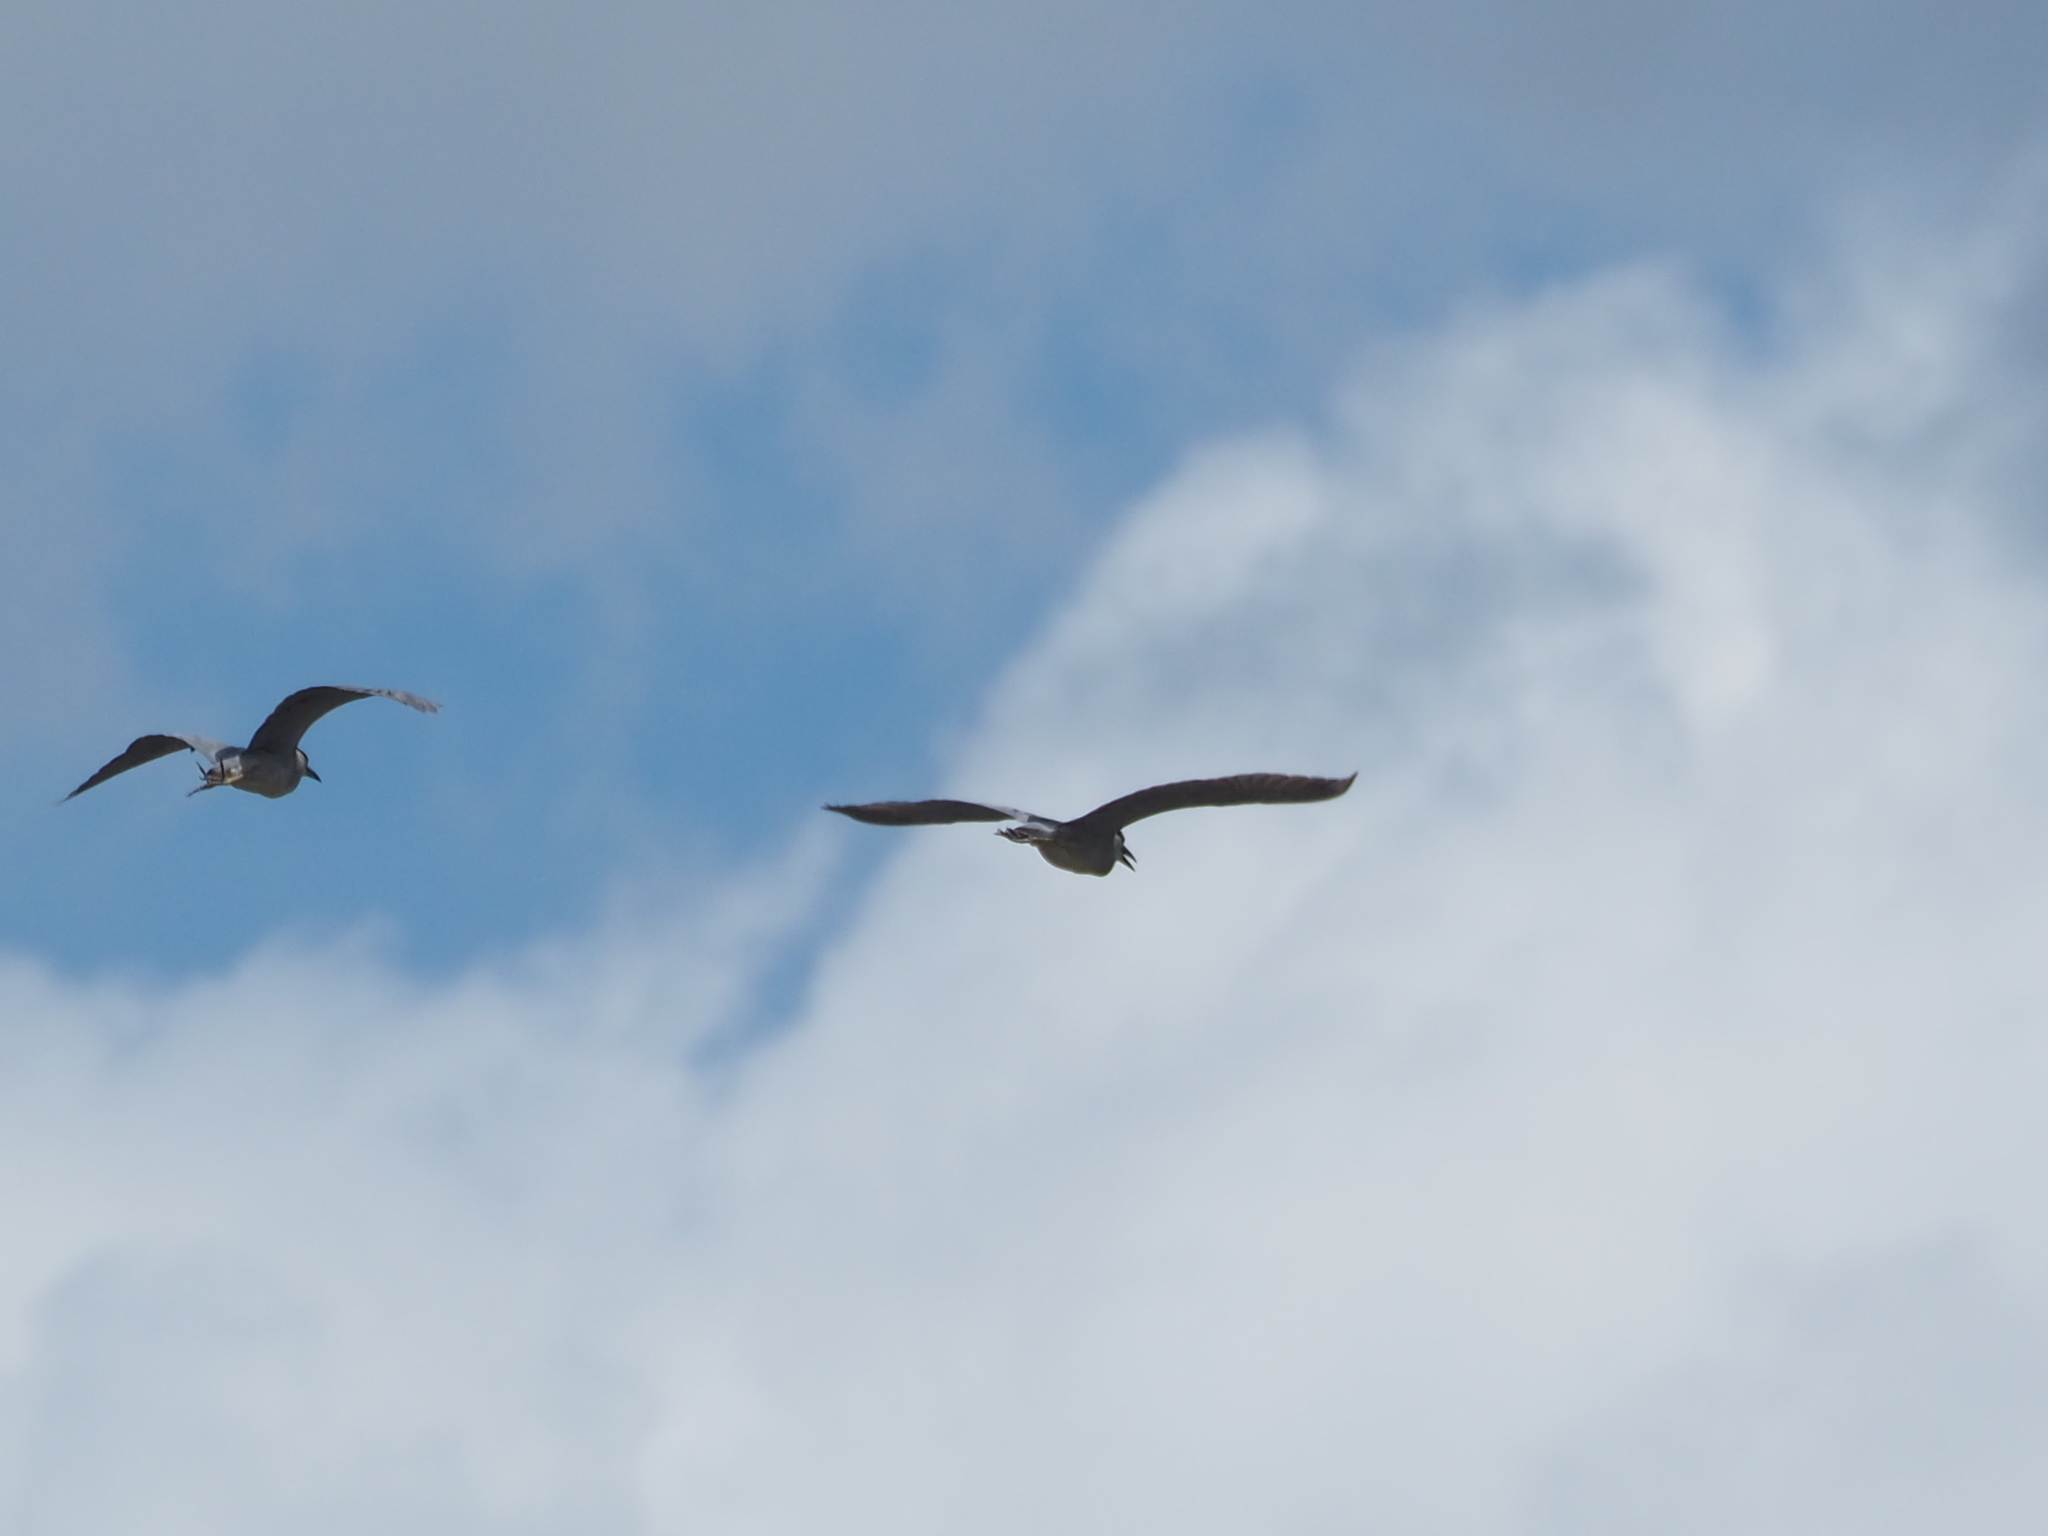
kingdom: Animalia
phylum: Chordata
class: Aves
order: Pelecaniformes
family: Ardeidae
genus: Nycticorax
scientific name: Nycticorax nycticorax
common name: Black-crowned night heron
